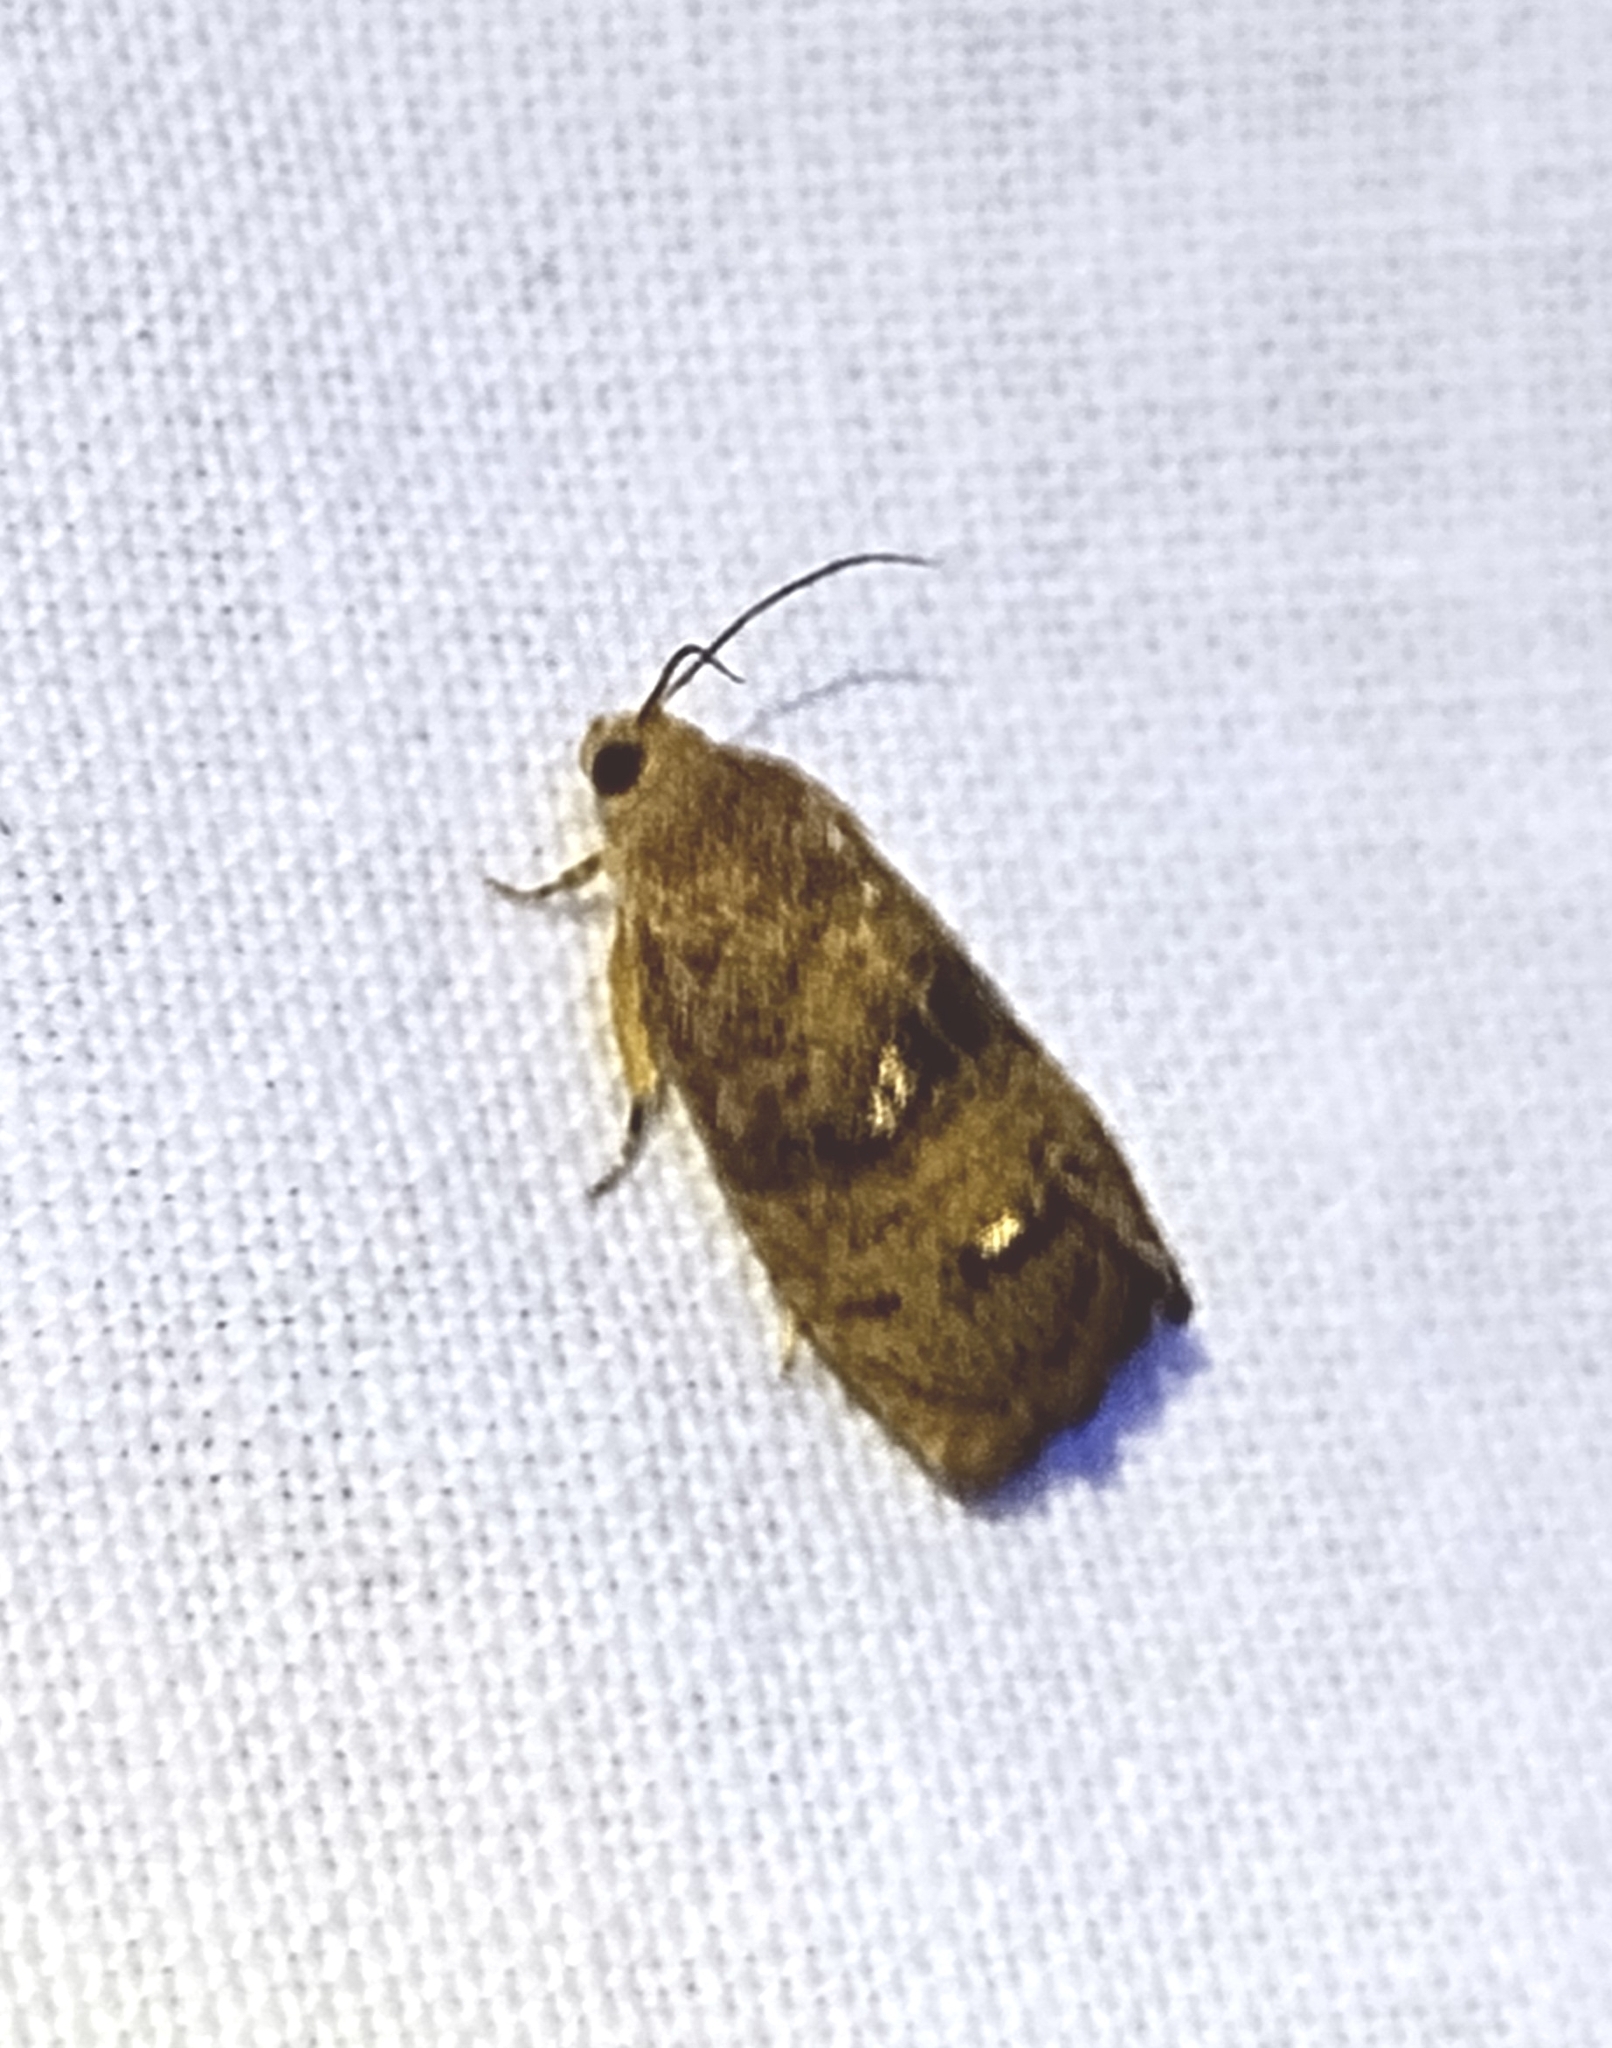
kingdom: Animalia
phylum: Arthropoda
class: Insecta
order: Lepidoptera
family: Tortricidae
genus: Cydia
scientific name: Cydia latiferreana
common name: Filbertworm moth
